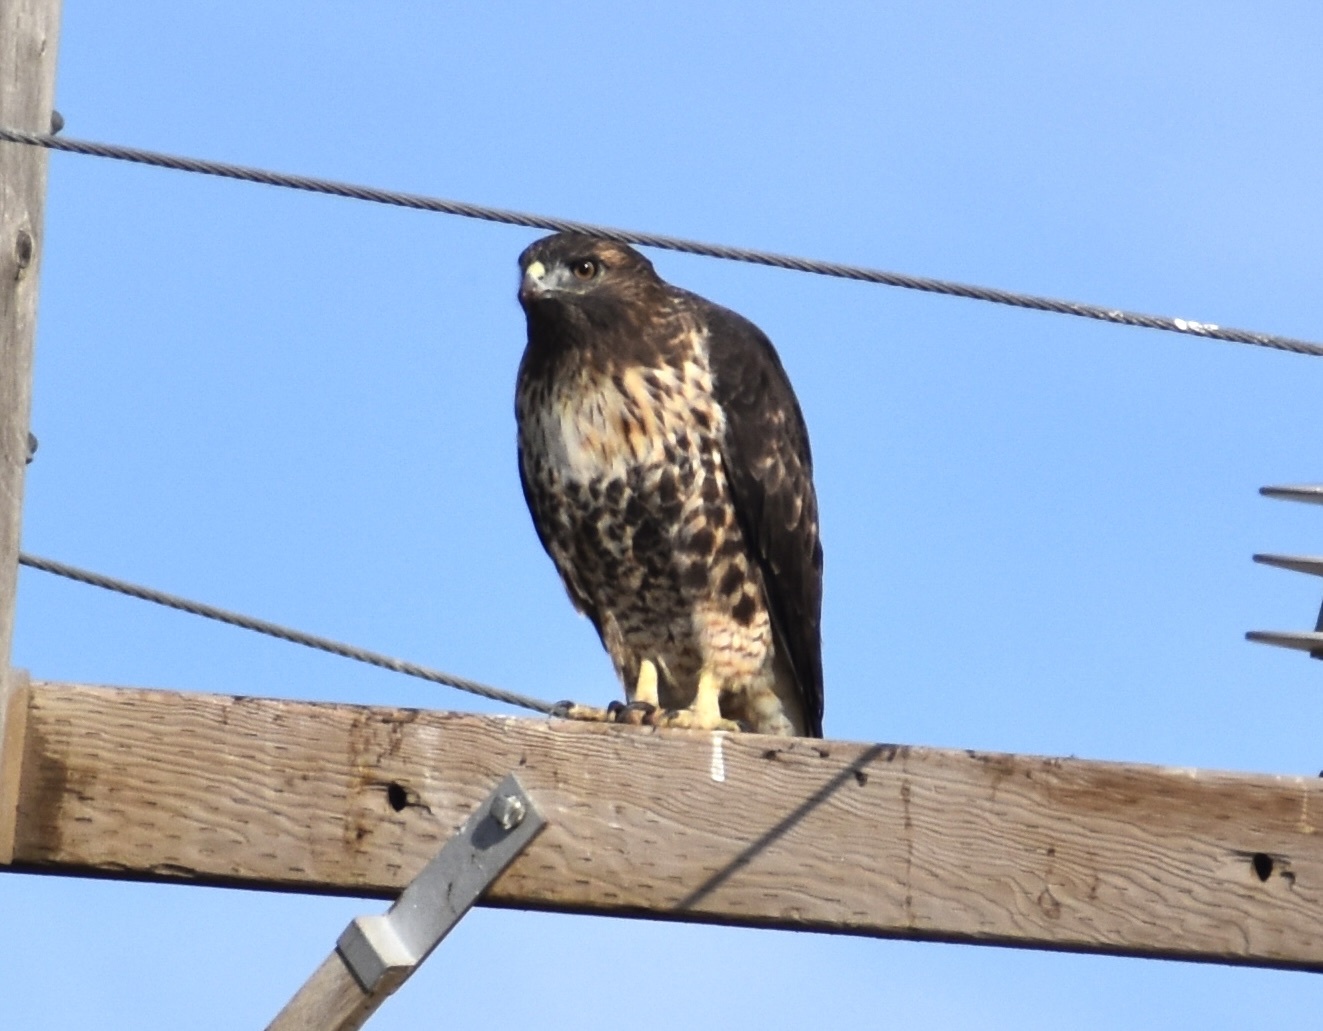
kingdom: Animalia
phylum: Chordata
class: Aves
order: Accipitriformes
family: Accipitridae
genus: Buteo
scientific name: Buteo jamaicensis
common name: Red-tailed hawk
